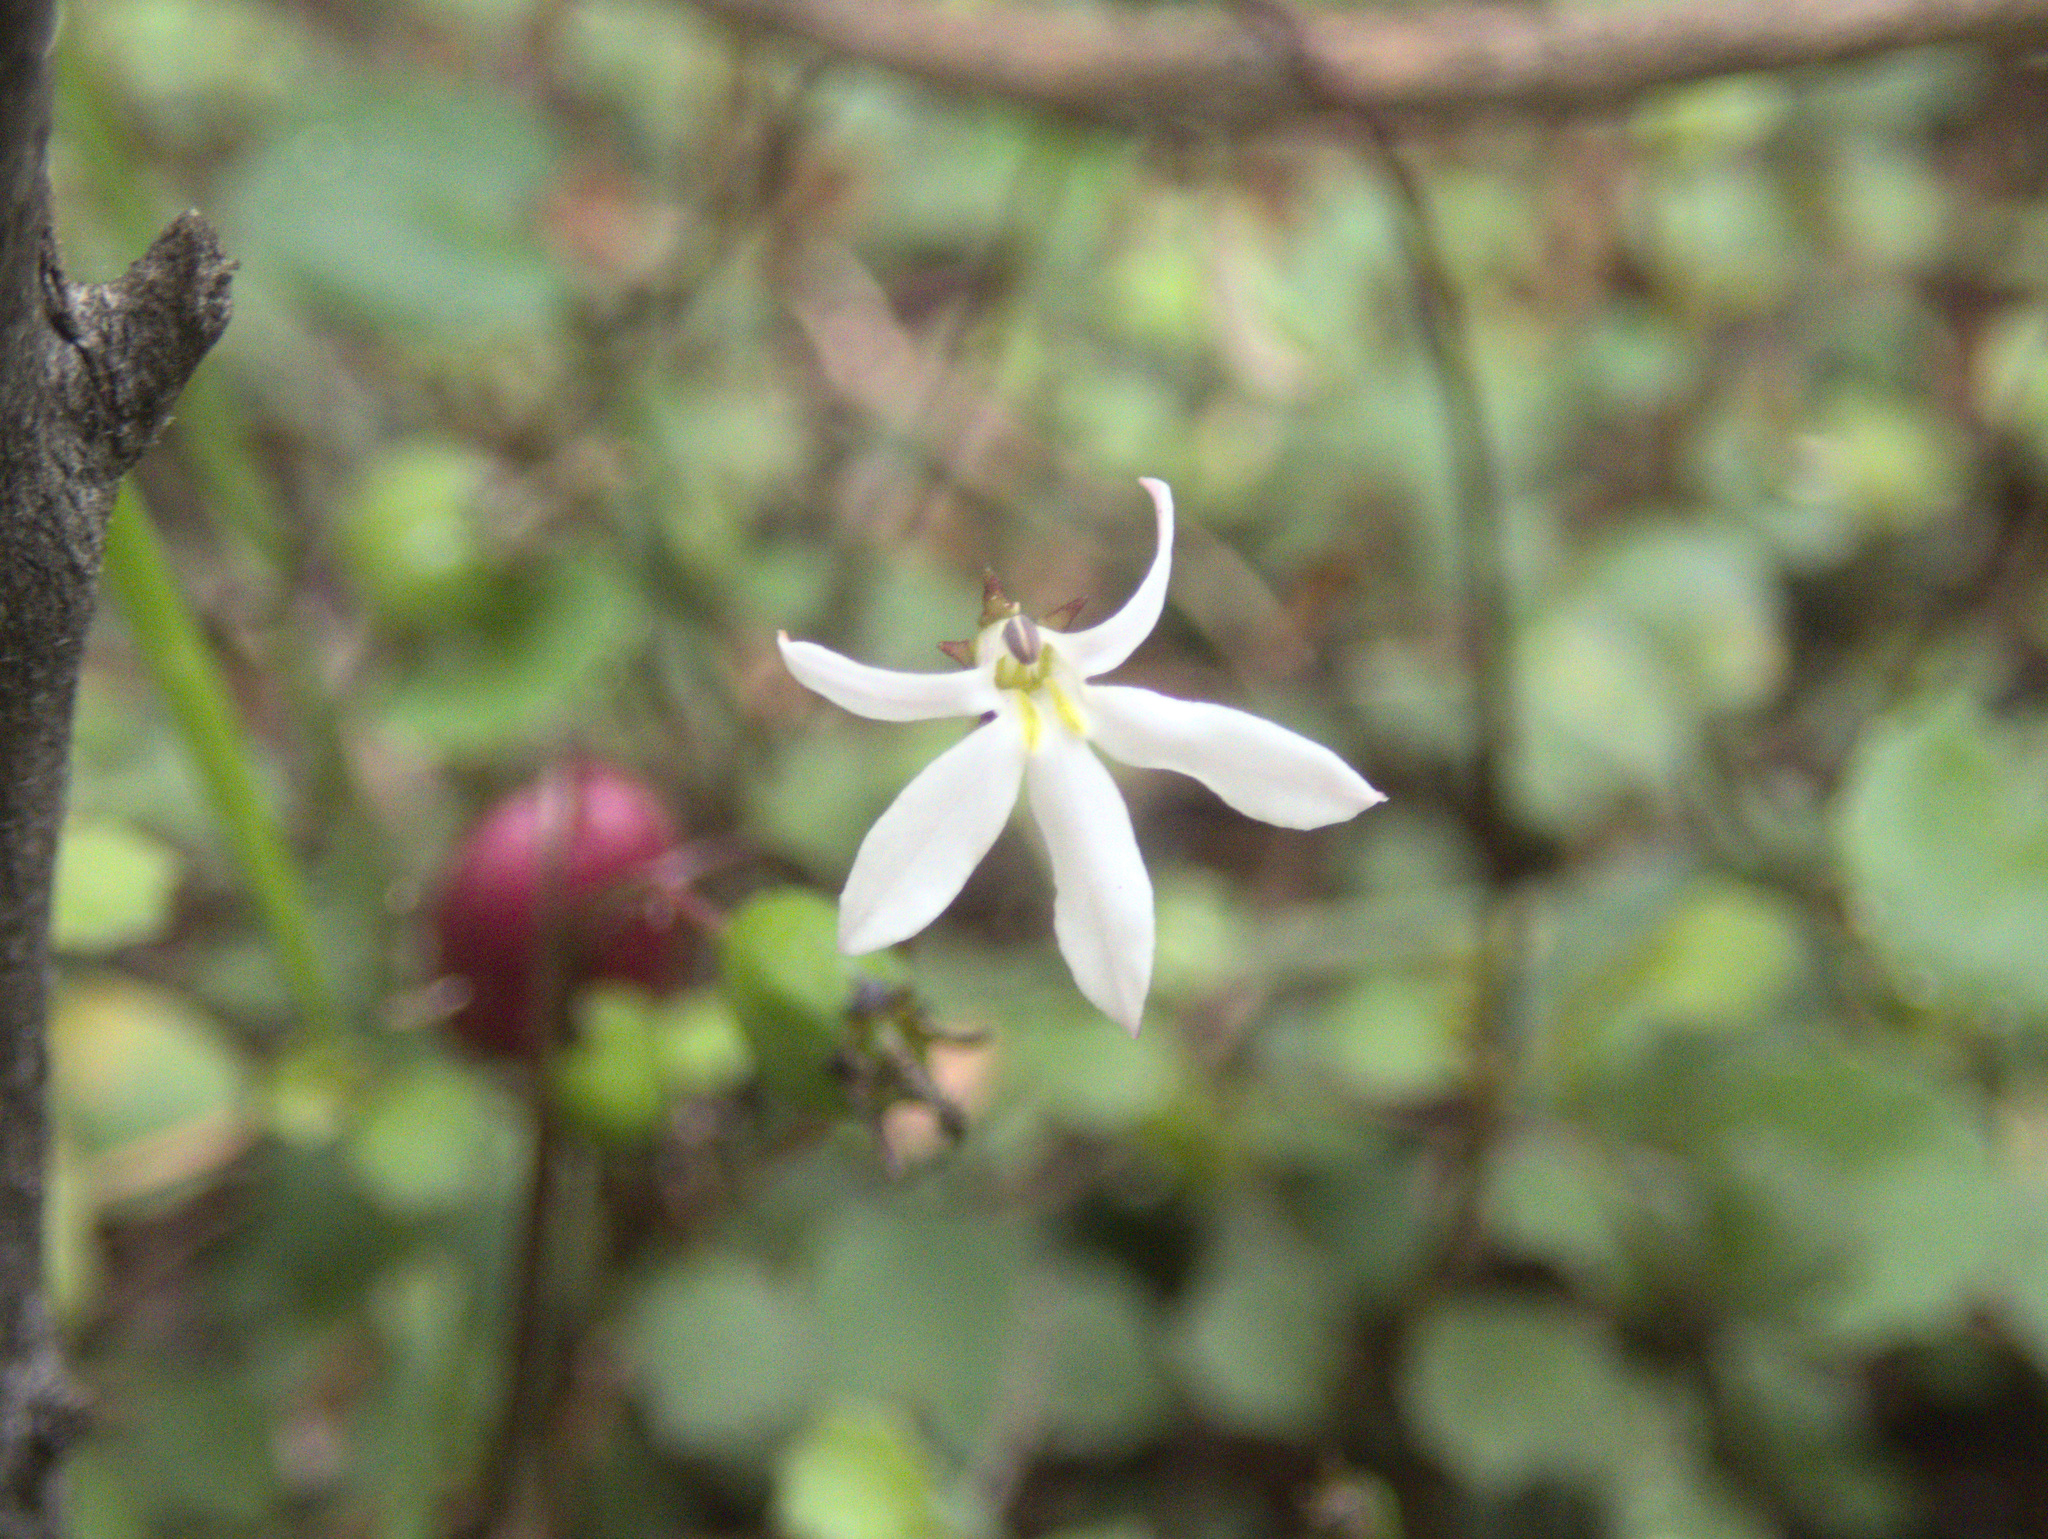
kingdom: Plantae
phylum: Tracheophyta
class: Magnoliopsida
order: Asterales
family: Campanulaceae
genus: Lobelia
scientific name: Lobelia angulata
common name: Lawn lobelia
